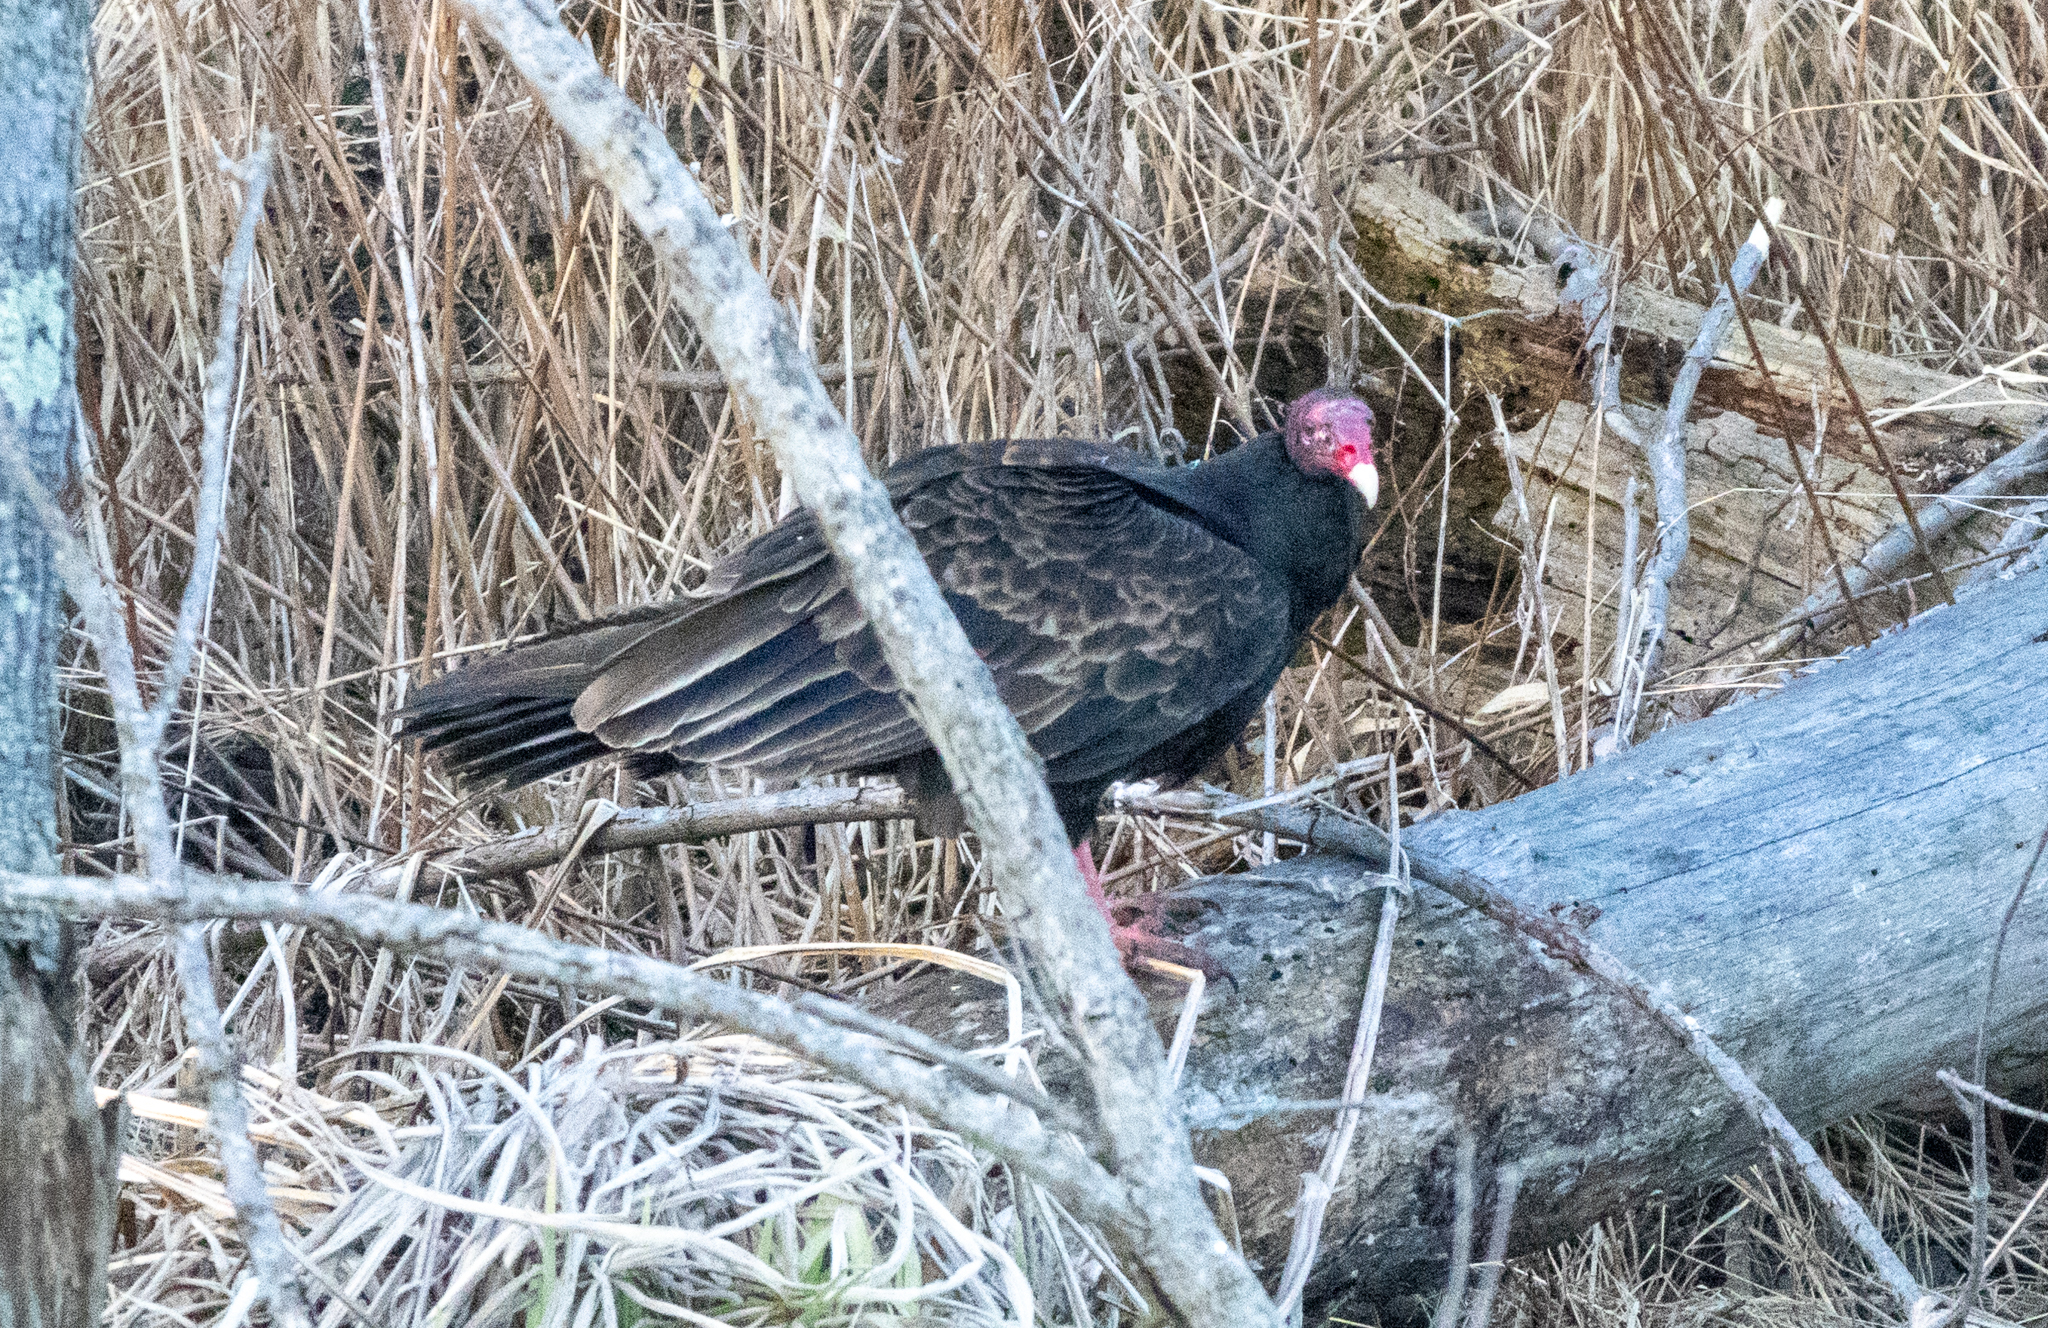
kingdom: Animalia
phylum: Chordata
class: Aves
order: Accipitriformes
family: Cathartidae
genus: Cathartes
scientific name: Cathartes aura
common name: Turkey vulture
